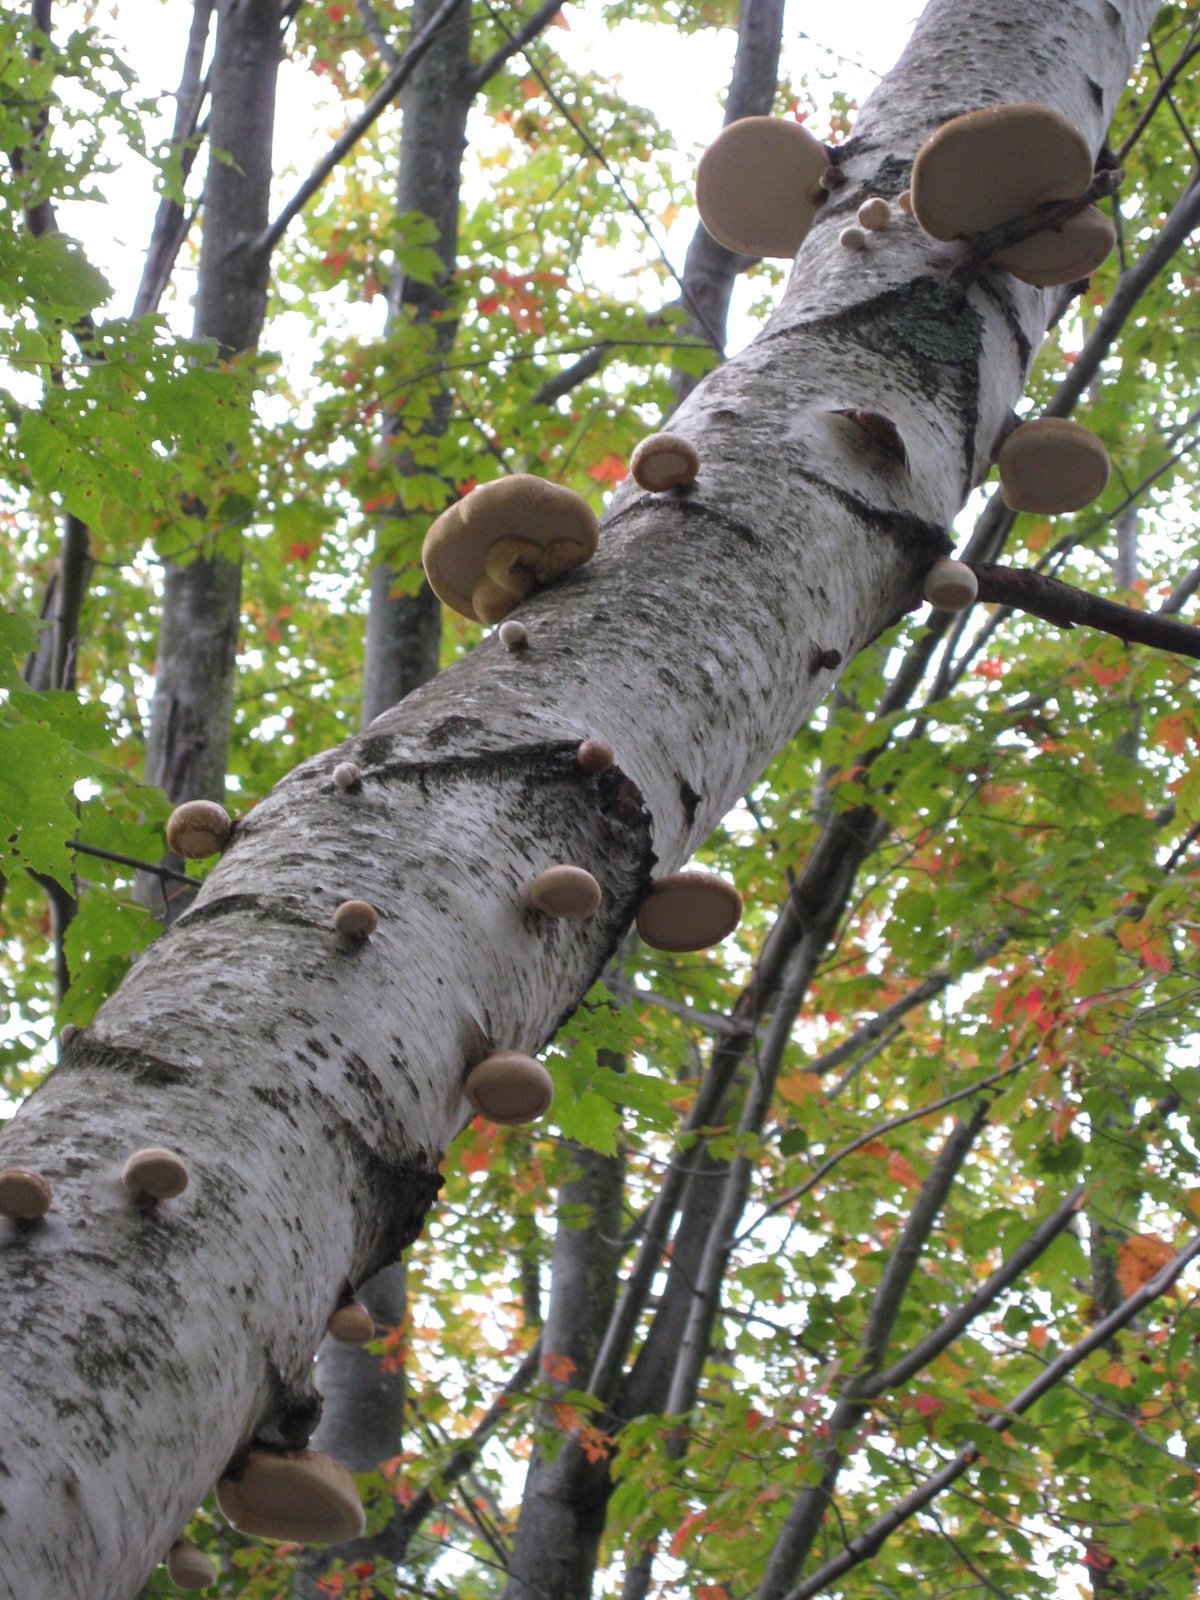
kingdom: Fungi
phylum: Basidiomycota
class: Agaricomycetes
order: Polyporales
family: Fomitopsidaceae
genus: Fomitopsis
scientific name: Fomitopsis betulina
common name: Birch polypore
